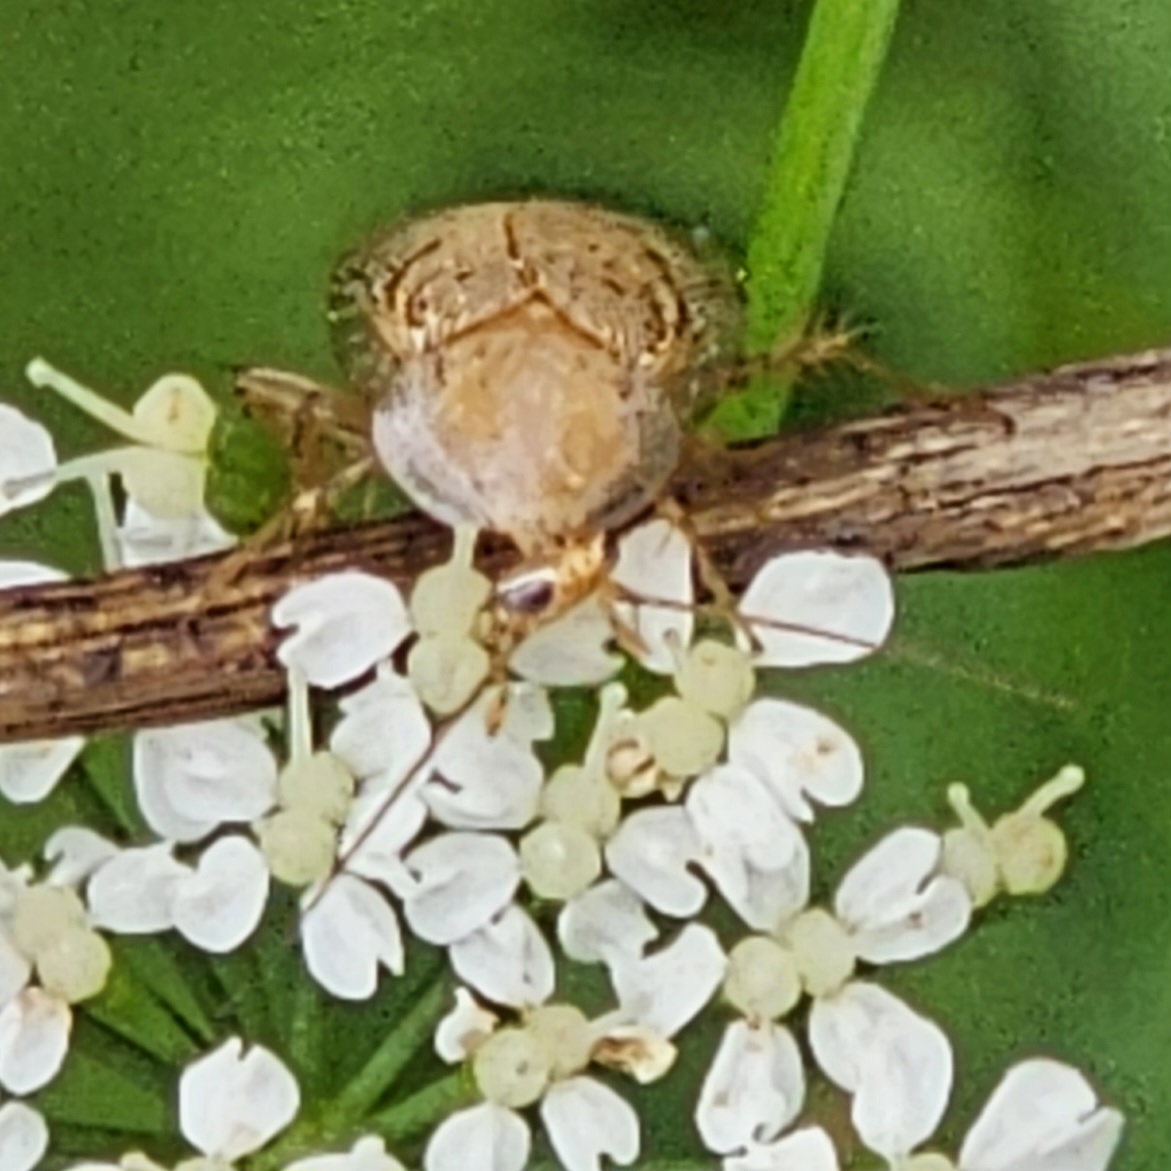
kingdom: Animalia
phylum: Arthropoda
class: Insecta
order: Blattodea
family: Ectobiidae
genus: Ectobius
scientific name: Ectobius pallidus
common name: Tawny cockroach
